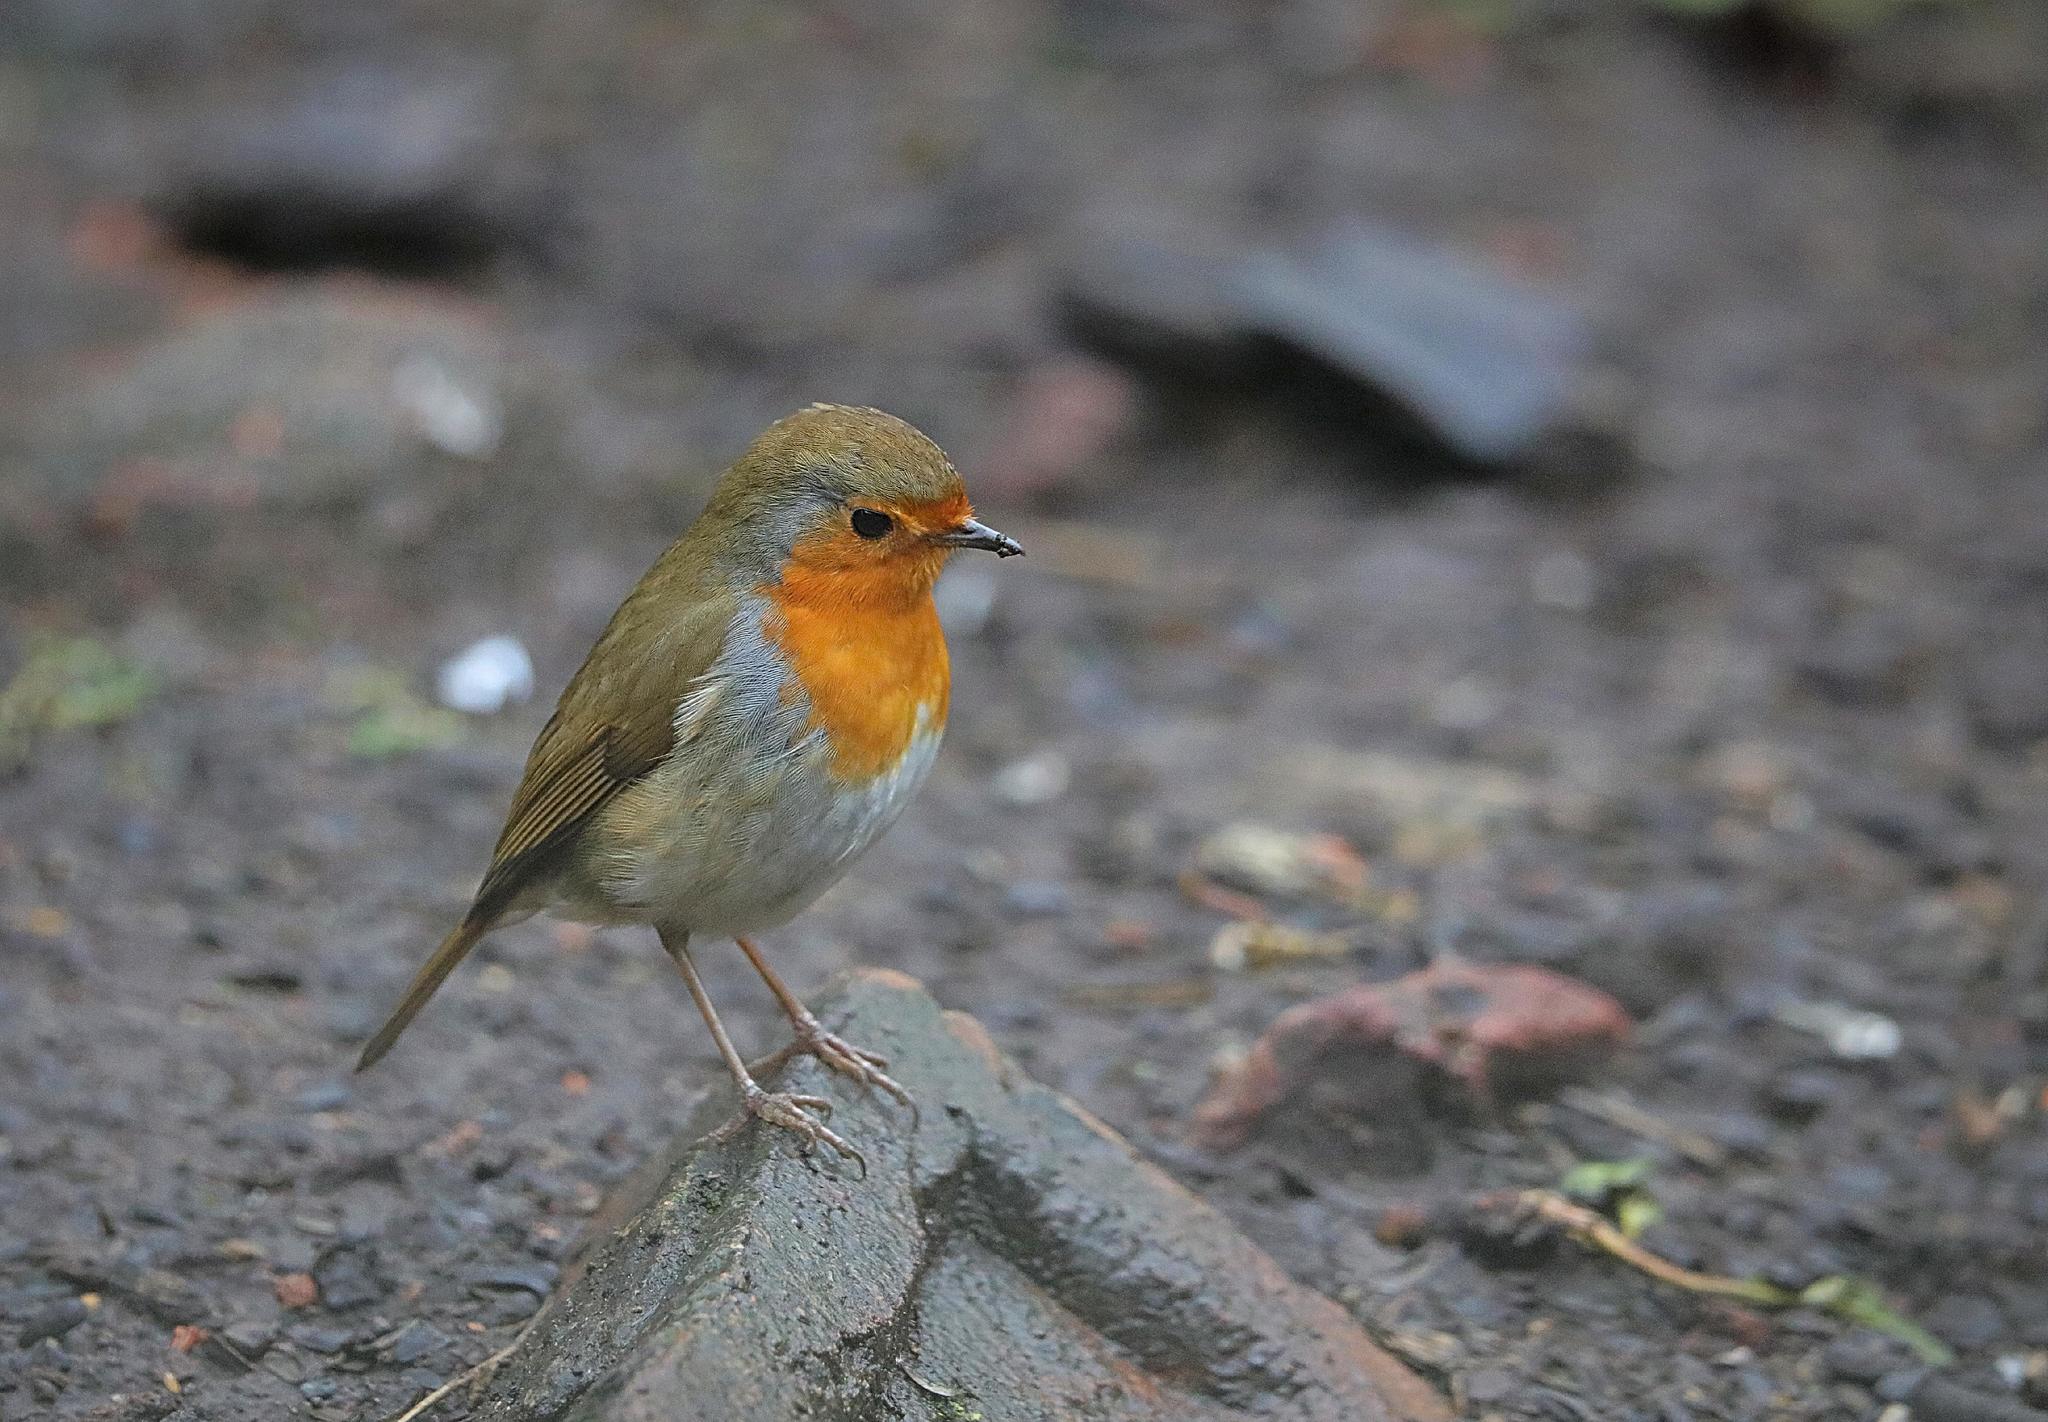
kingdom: Animalia
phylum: Chordata
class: Aves
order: Passeriformes
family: Muscicapidae
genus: Erithacus
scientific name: Erithacus rubecula
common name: European robin
